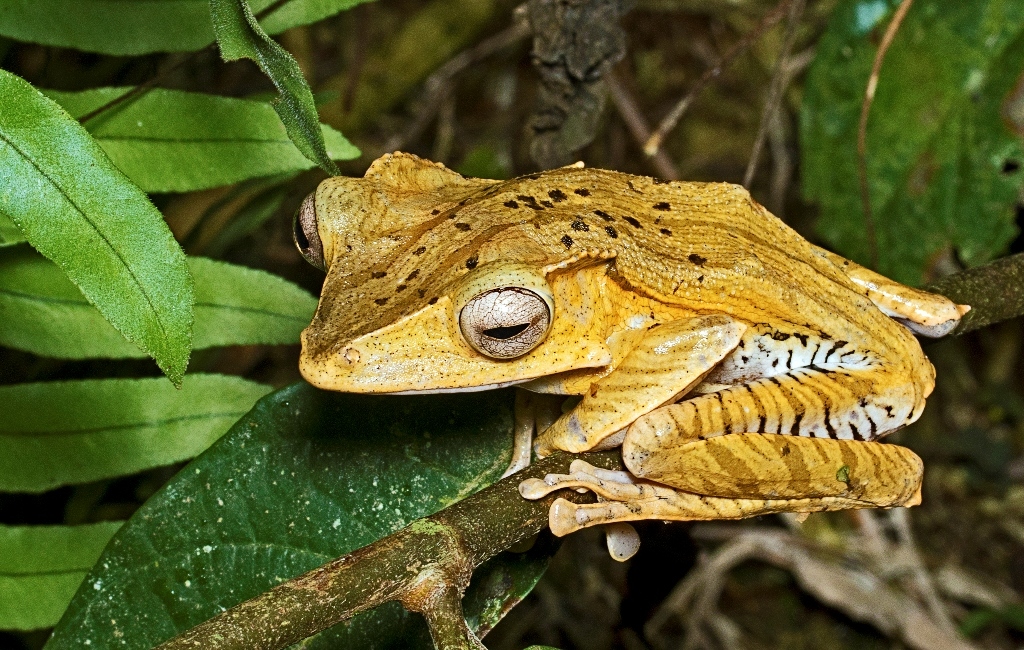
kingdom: Animalia
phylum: Chordata
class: Amphibia
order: Anura
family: Rhacophoridae
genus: Polypedates
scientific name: Polypedates otilophus
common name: File-eared tree frog
